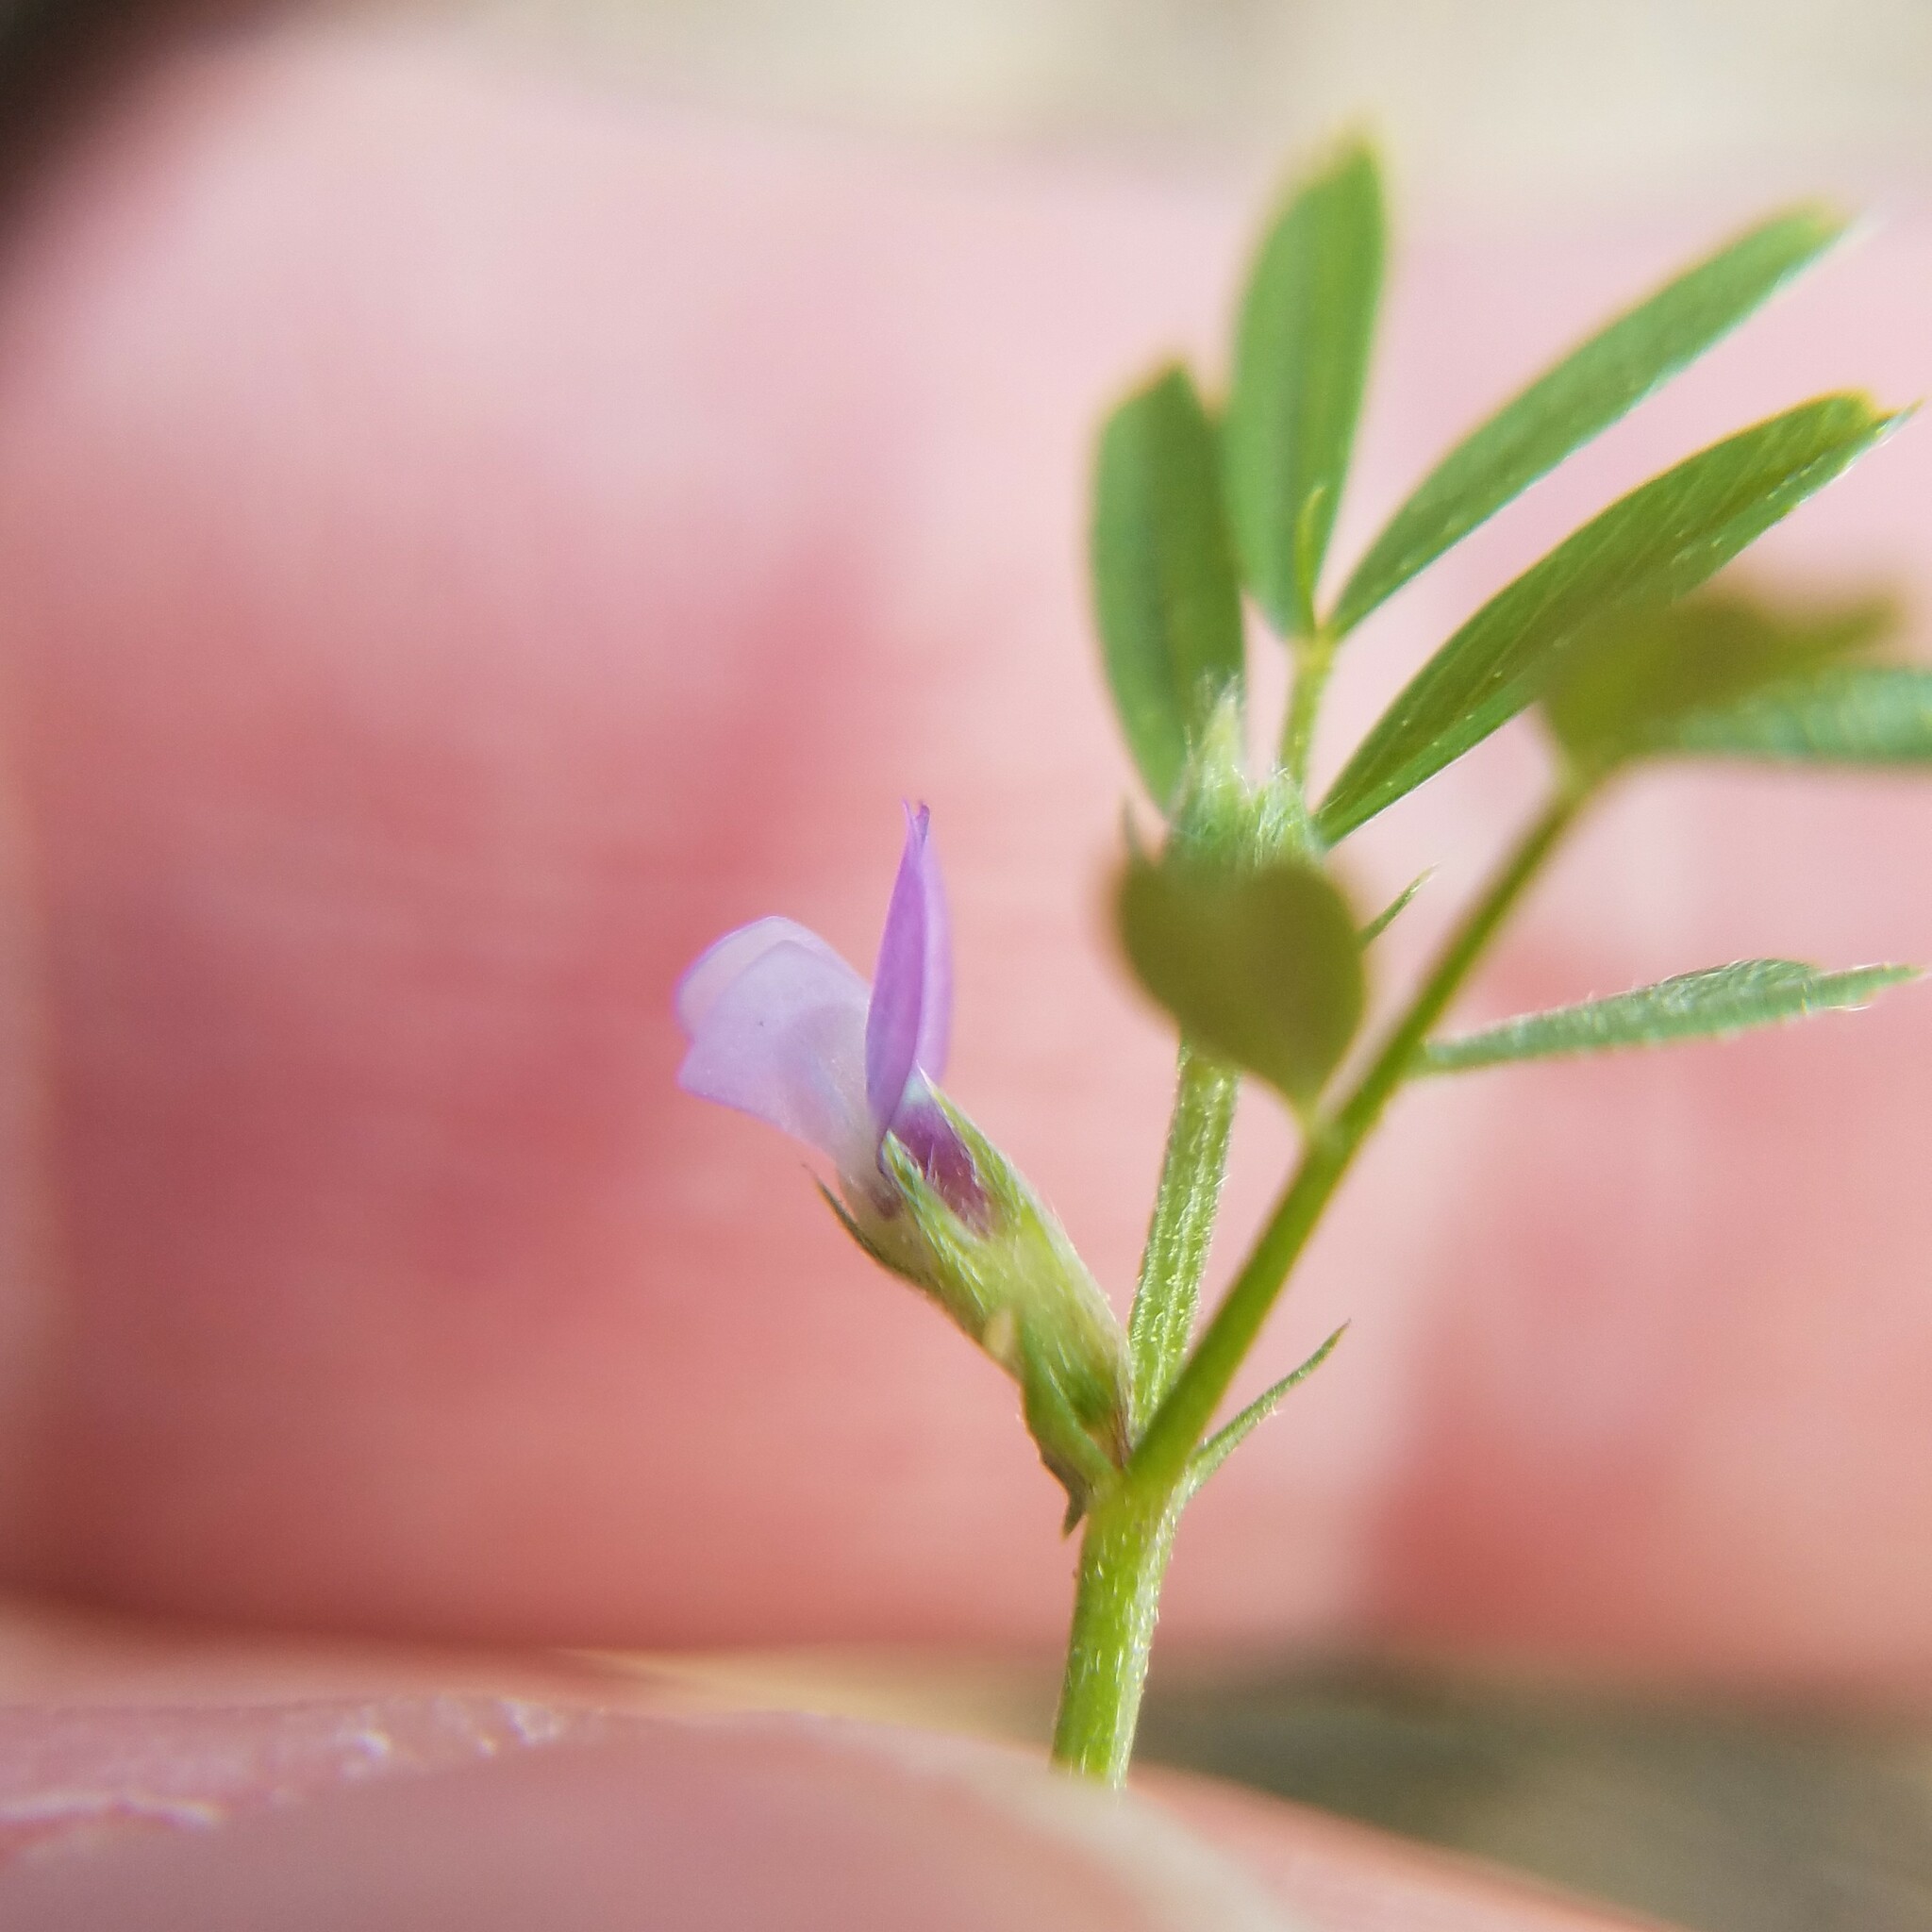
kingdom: Plantae
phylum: Tracheophyta
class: Magnoliopsida
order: Fabales
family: Fabaceae
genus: Vicia
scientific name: Vicia lathyroides
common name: Spring vetch
